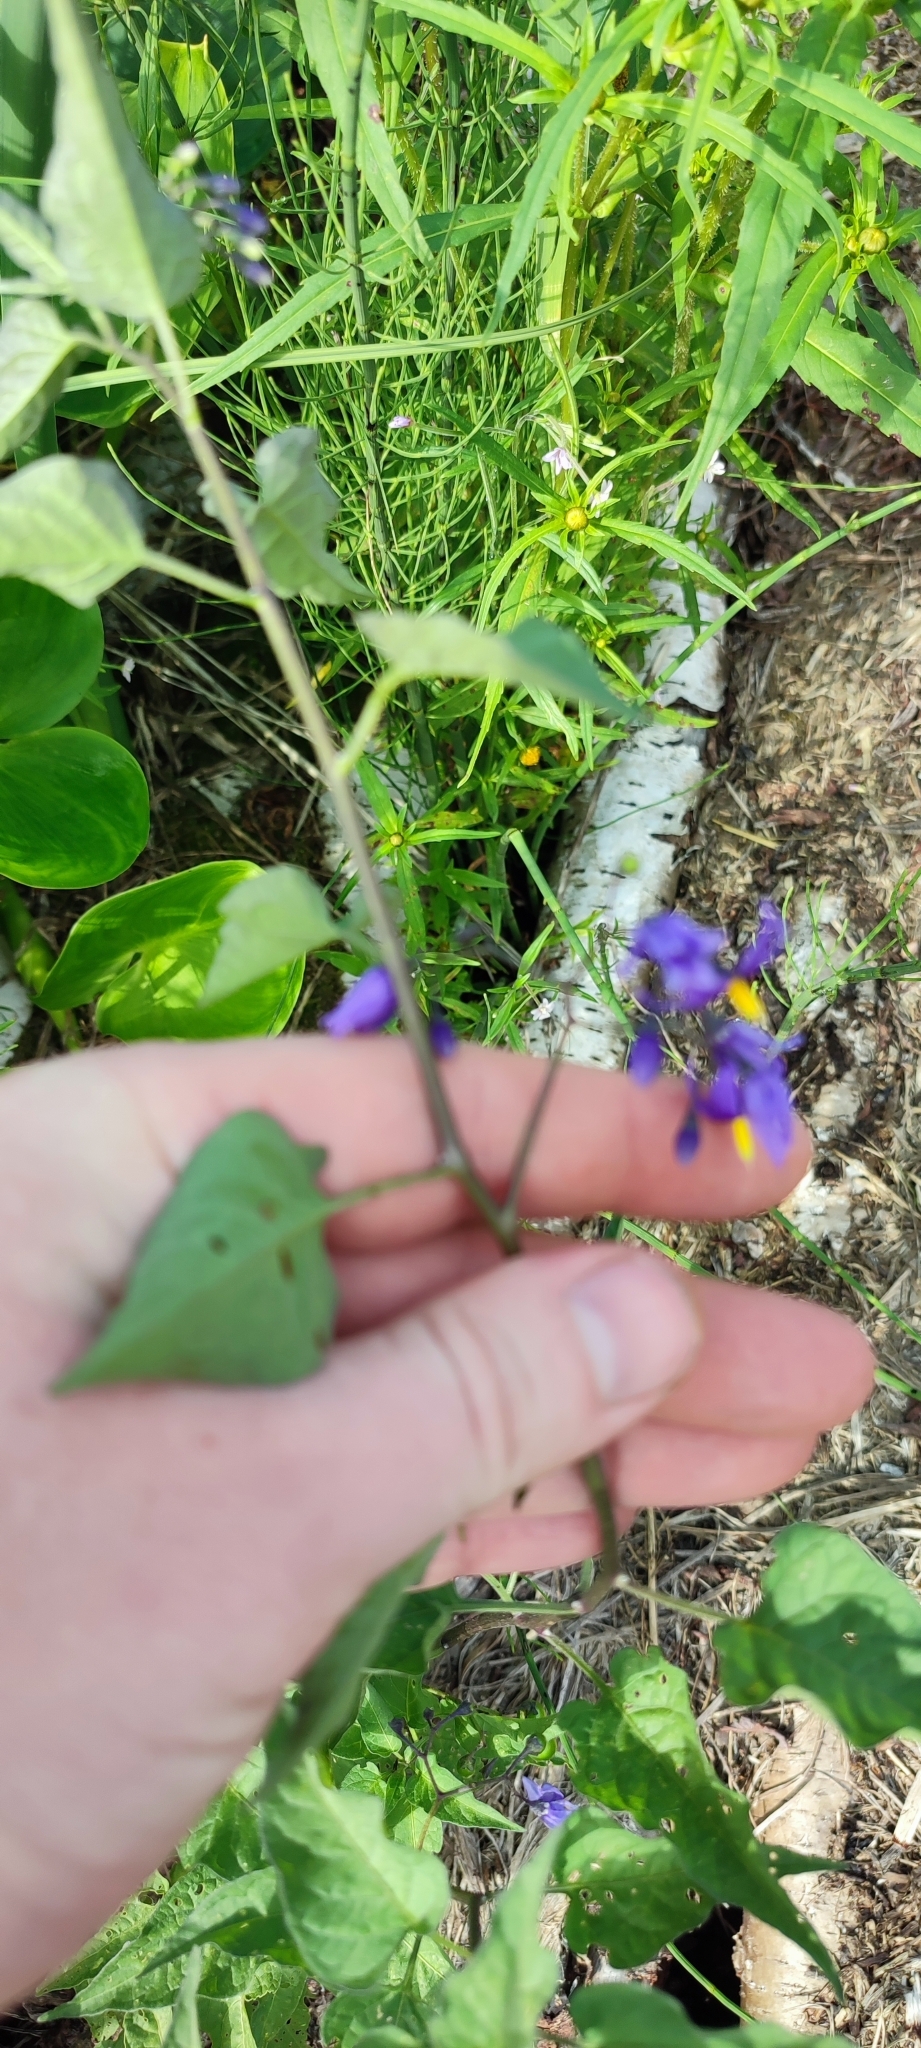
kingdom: Plantae
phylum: Tracheophyta
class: Magnoliopsida
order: Solanales
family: Solanaceae
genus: Solanum
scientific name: Solanum dulcamara
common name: Climbing nightshade
